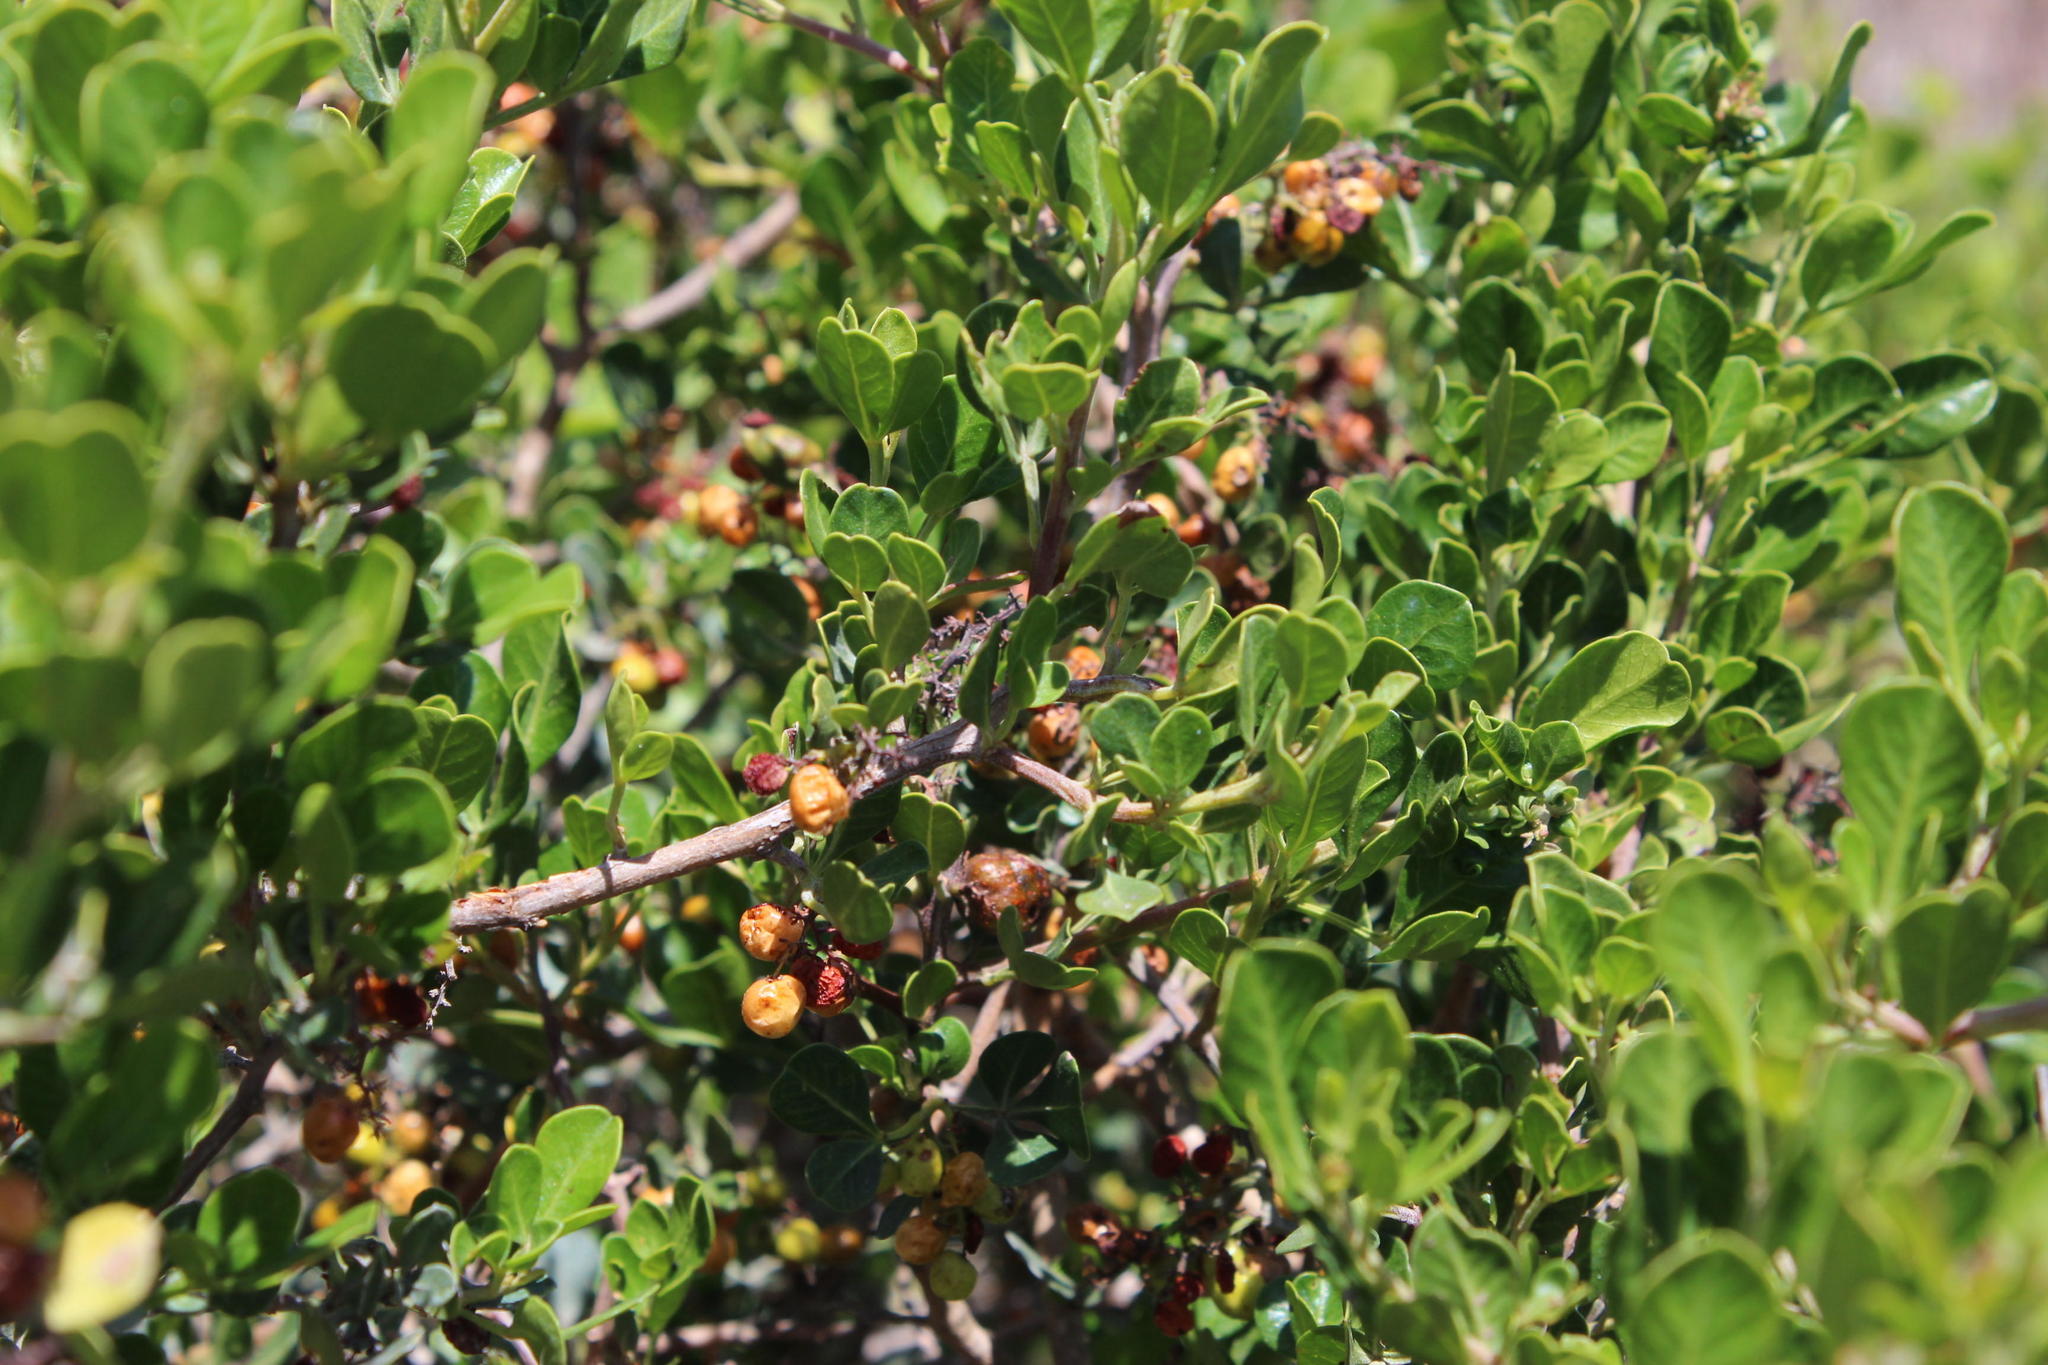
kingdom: Plantae
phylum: Tracheophyta
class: Magnoliopsida
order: Sapindales
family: Anacardiaceae
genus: Searsia
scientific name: Searsia glauca
